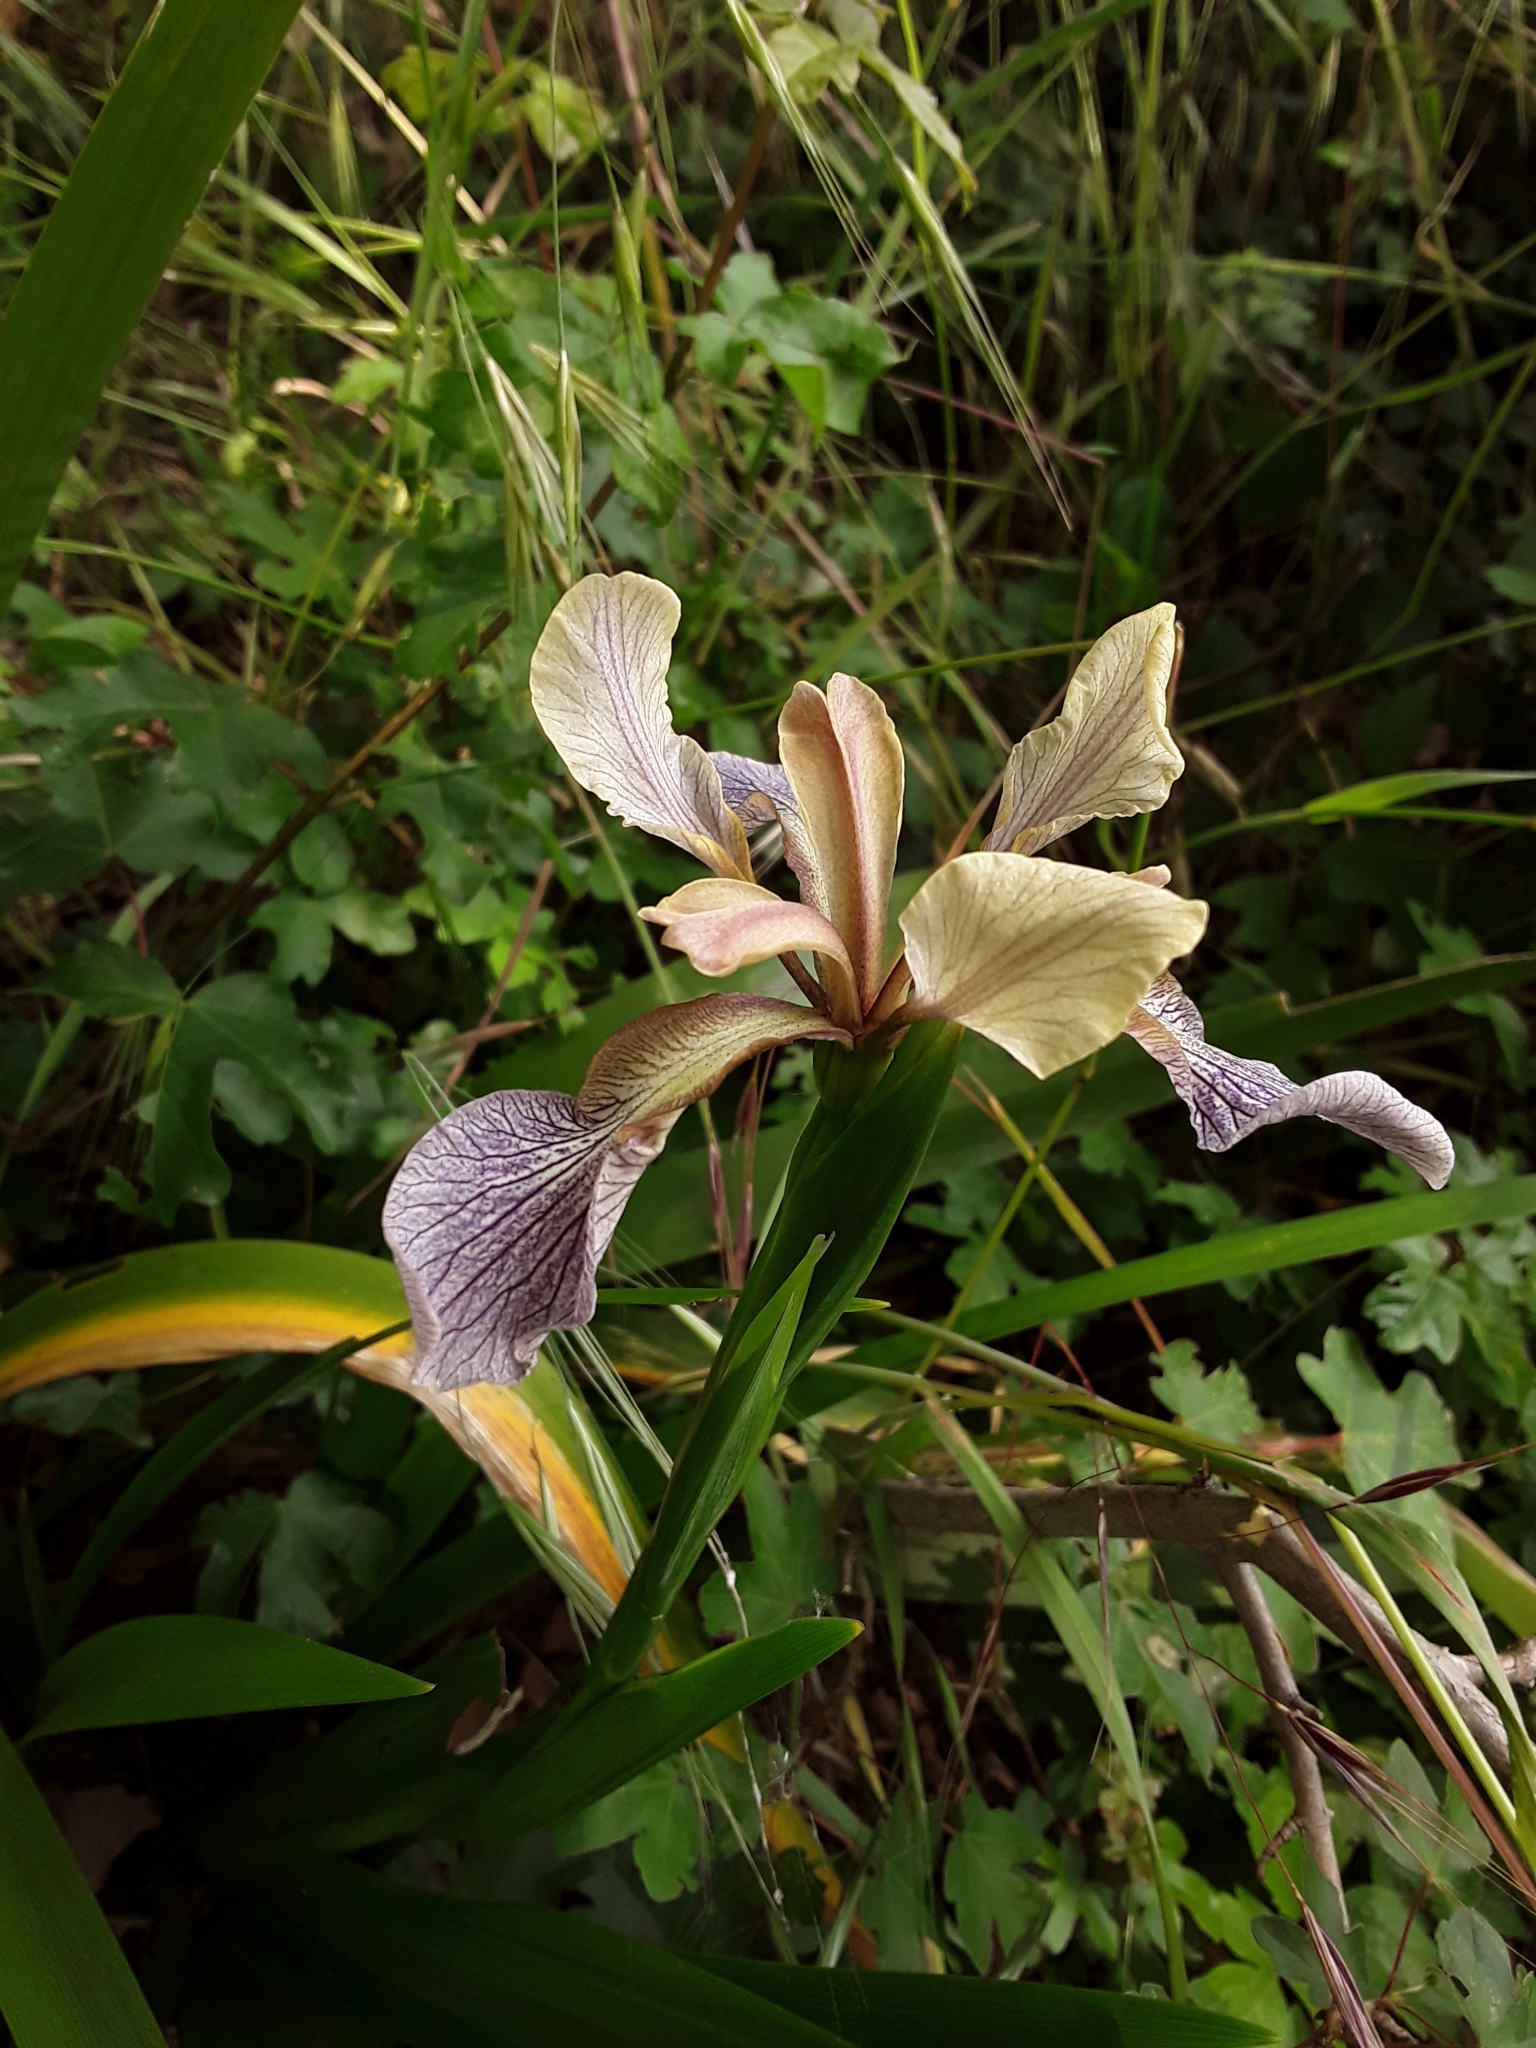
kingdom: Plantae
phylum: Tracheophyta
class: Liliopsida
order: Asparagales
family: Iridaceae
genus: Iris
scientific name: Iris foetidissima
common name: Stinking iris
